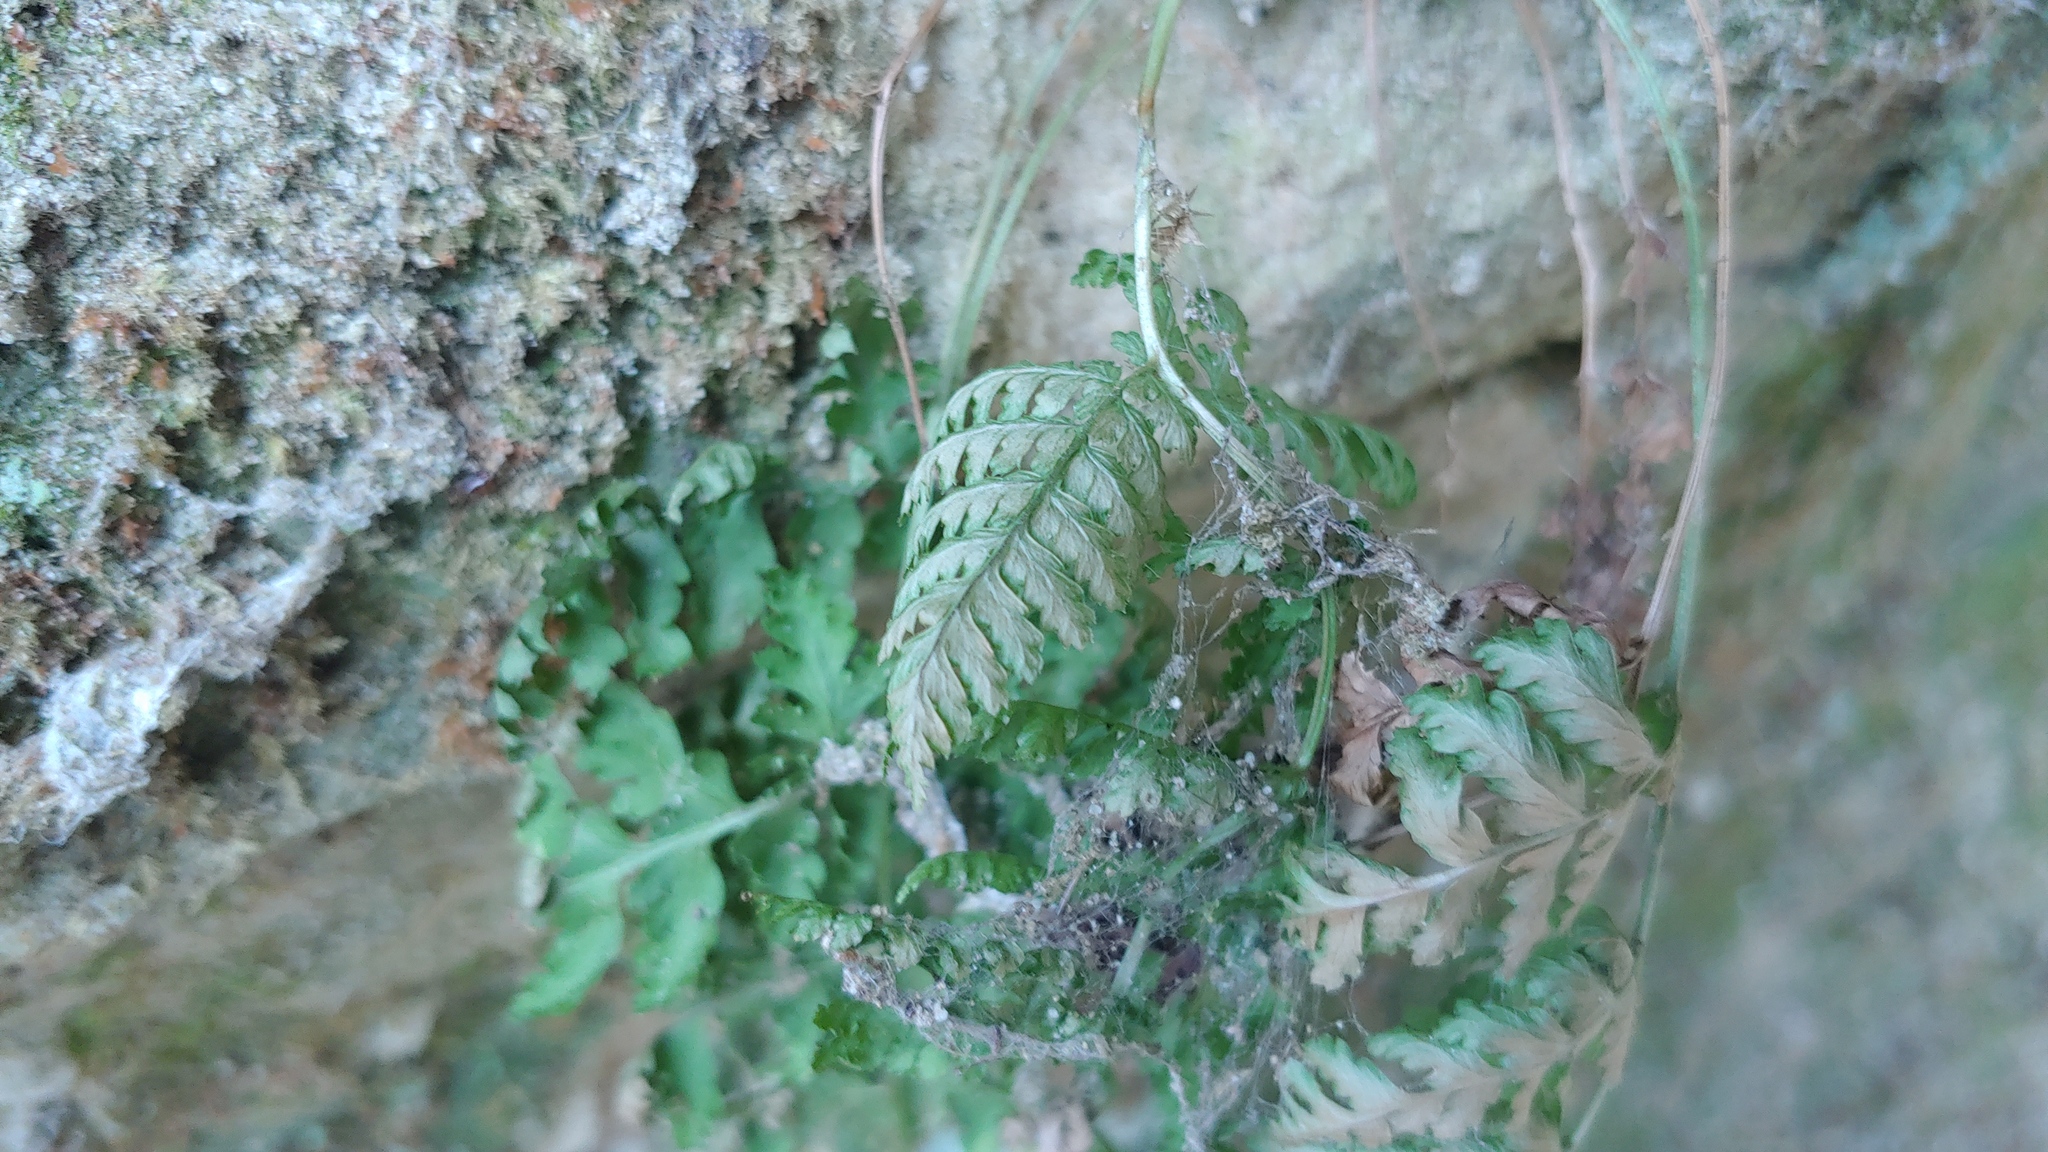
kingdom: Plantae
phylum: Tracheophyta
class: Polypodiopsida
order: Polypodiales
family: Dryopteridaceae
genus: Dryopteris
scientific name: Dryopteris intermedia
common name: Evergreen wood fern
